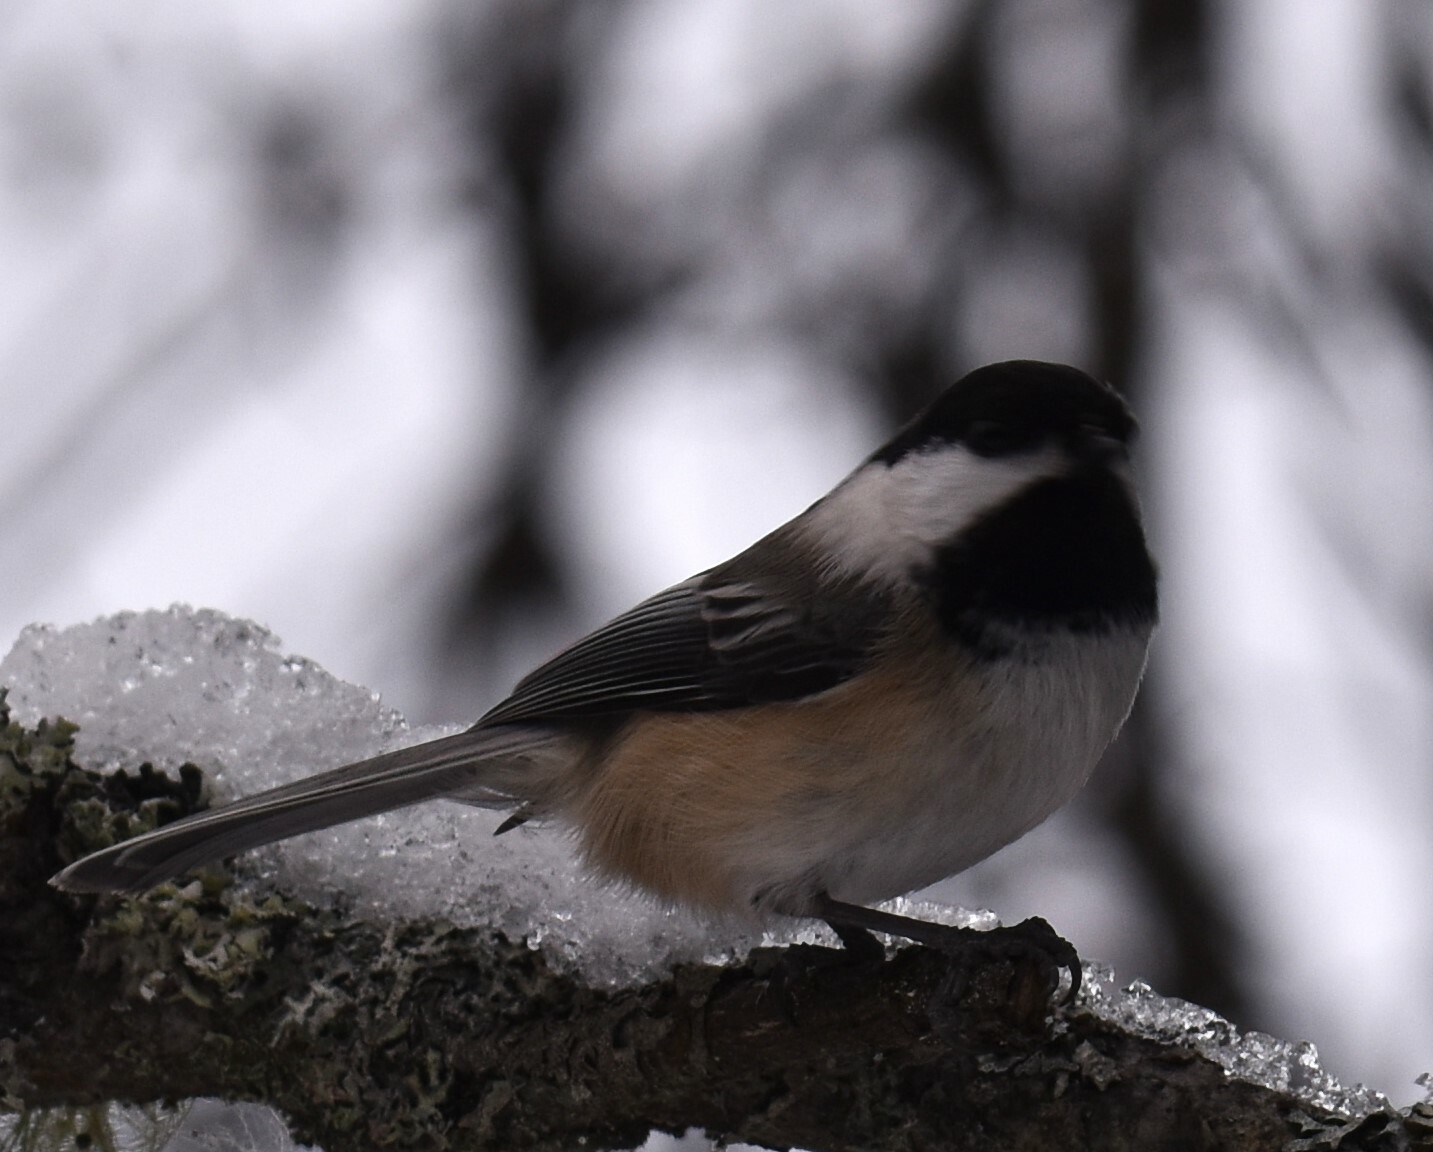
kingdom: Animalia
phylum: Chordata
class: Aves
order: Passeriformes
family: Paridae
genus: Poecile
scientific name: Poecile atricapillus
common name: Black-capped chickadee
